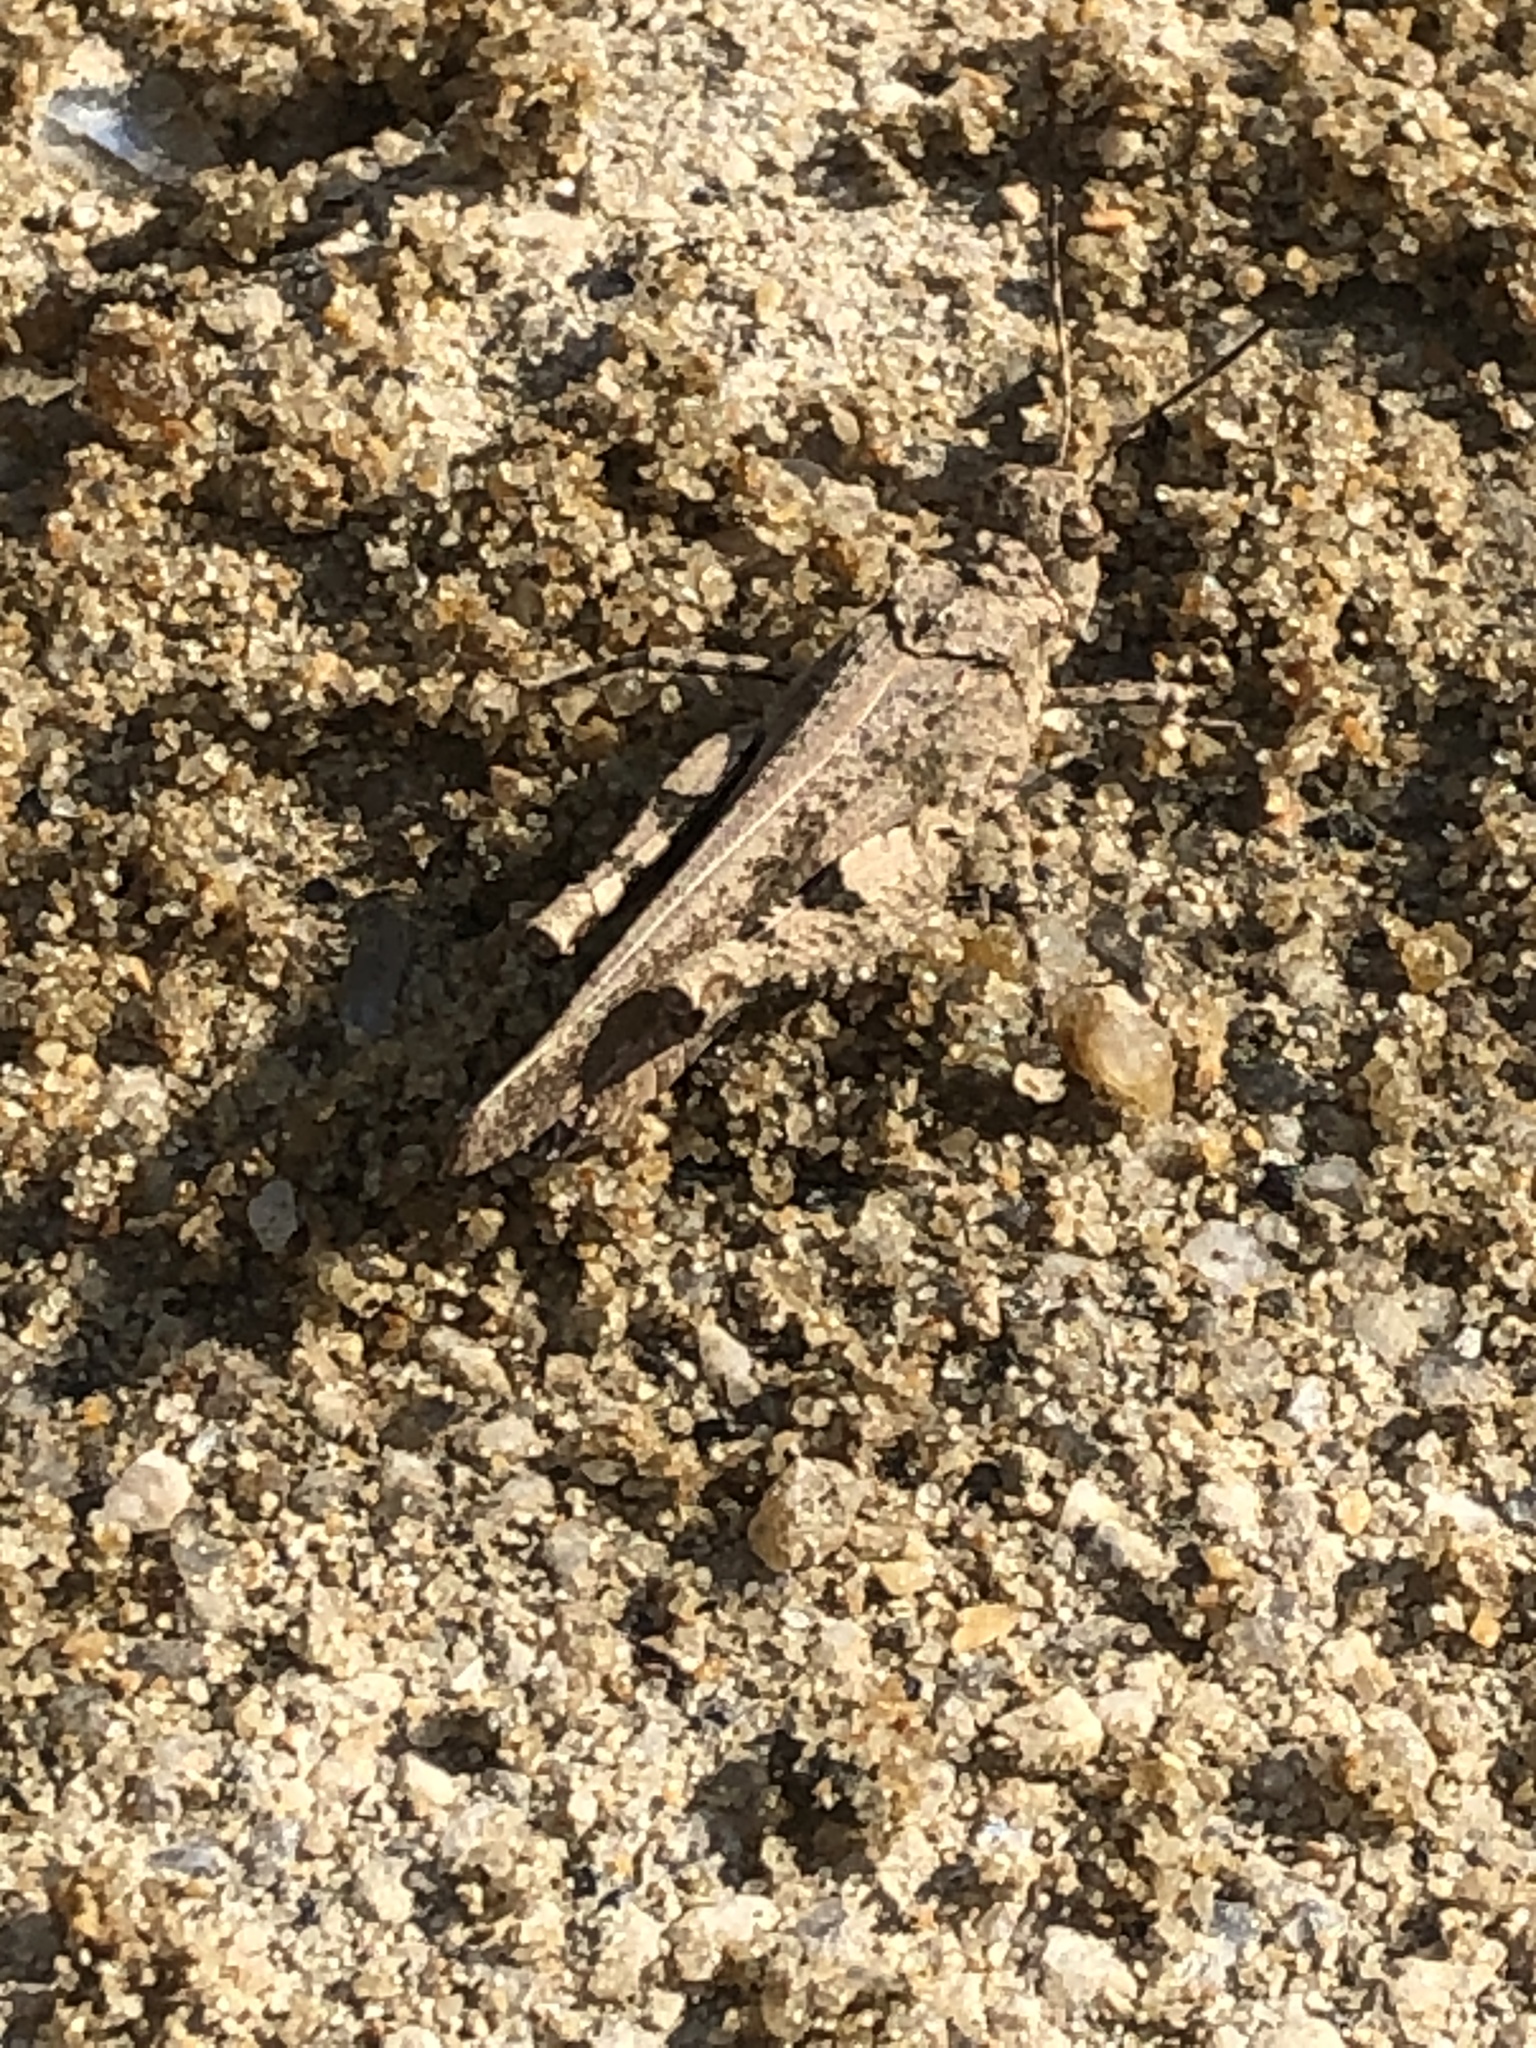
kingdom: Animalia
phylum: Arthropoda
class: Insecta
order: Orthoptera
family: Acrididae
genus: Trilophidia
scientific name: Trilophidia annulata
